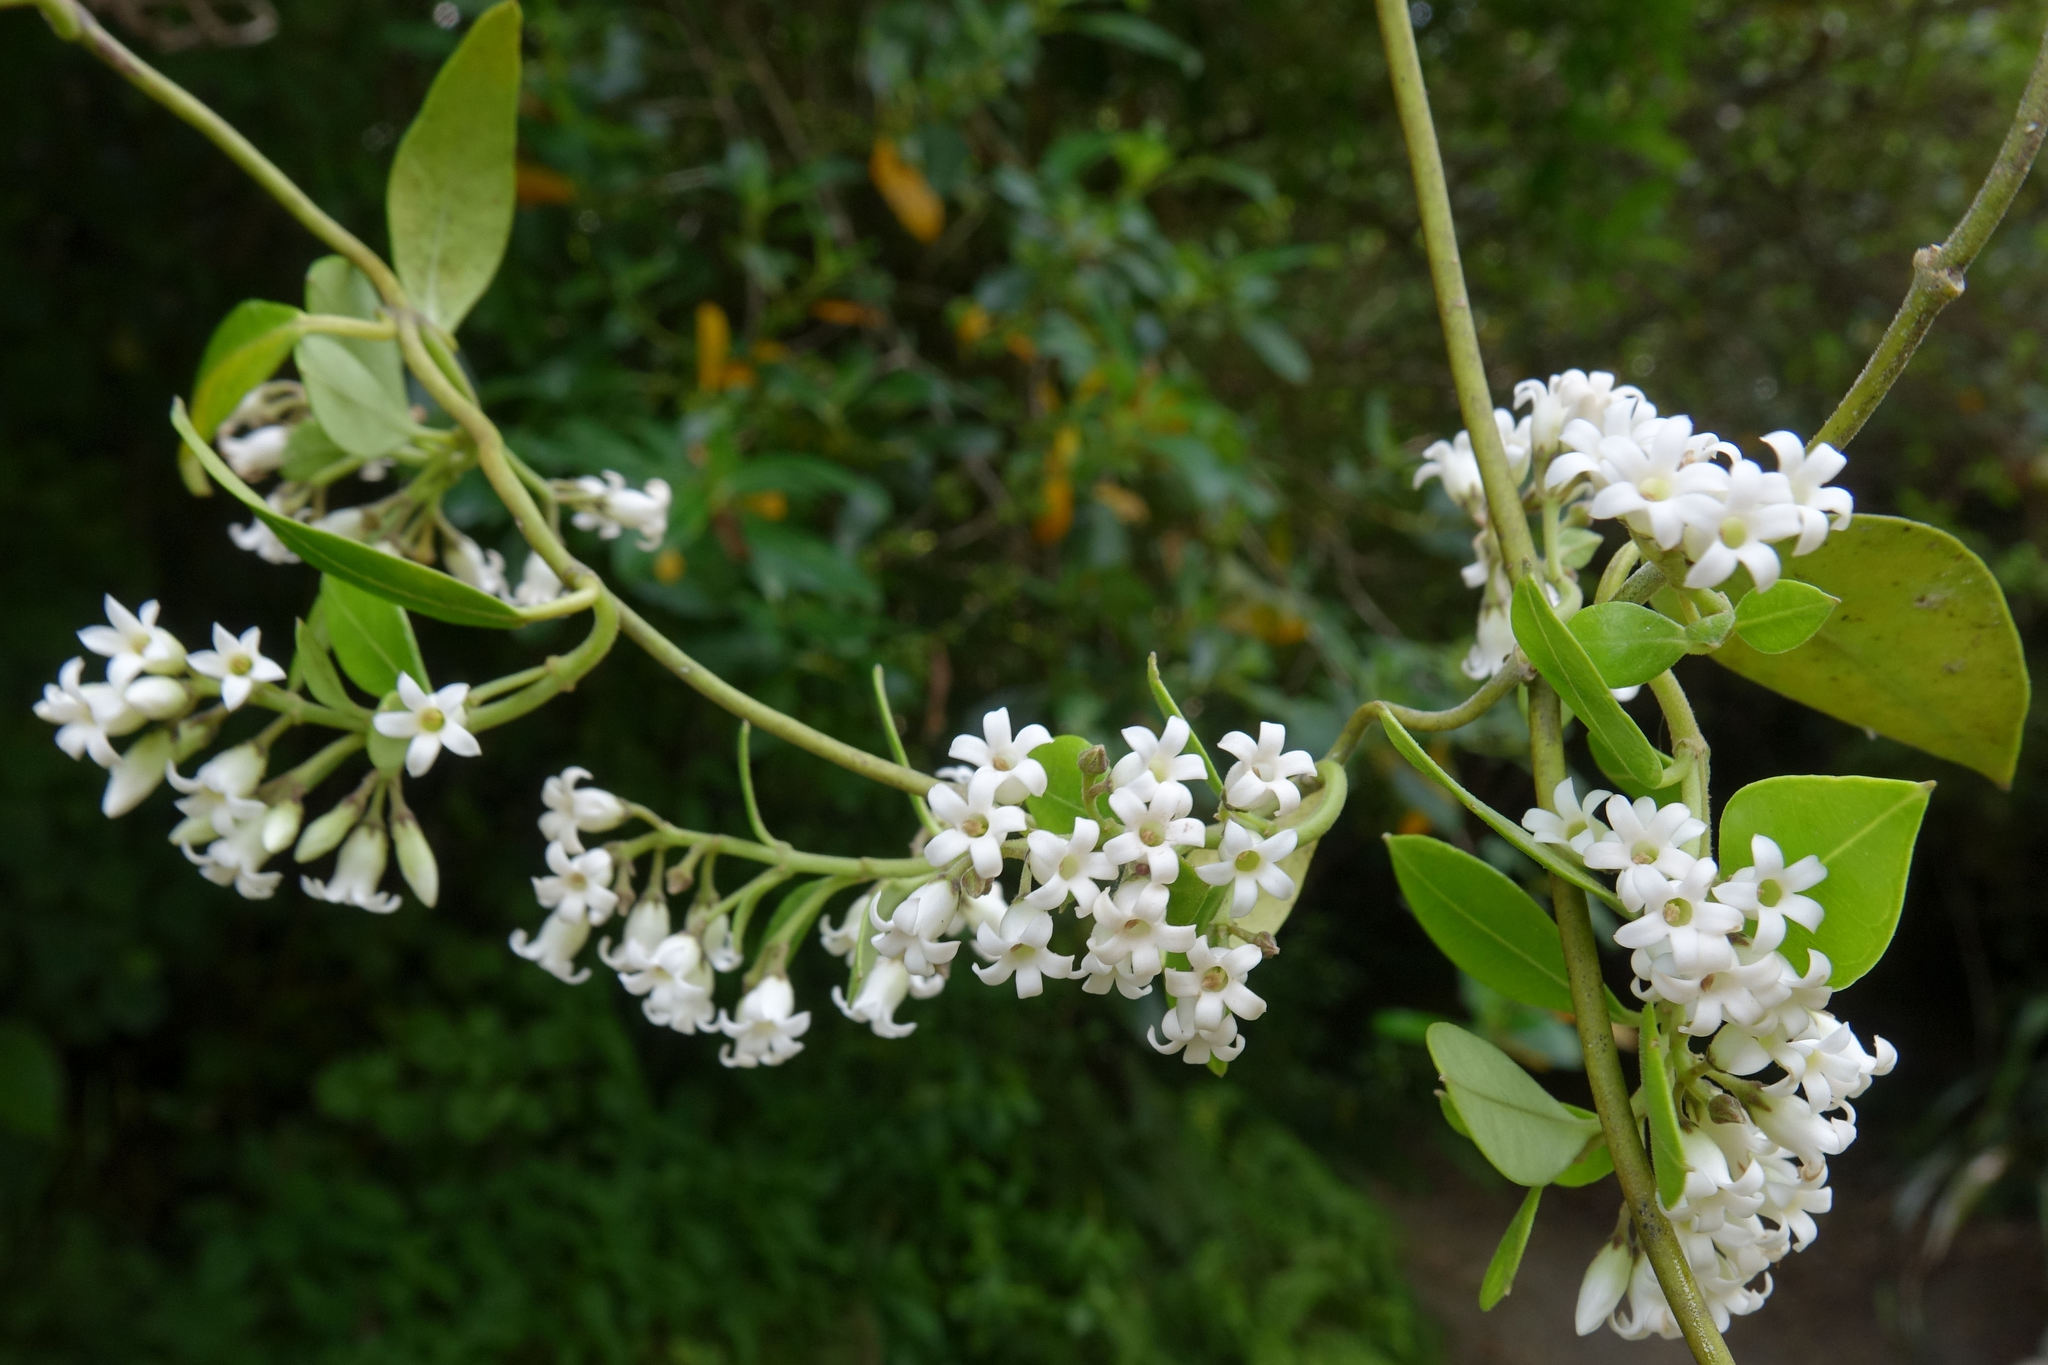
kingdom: Plantae
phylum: Tracheophyta
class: Magnoliopsida
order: Gentianales
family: Apocynaceae
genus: Parsonsia
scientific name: Parsonsia heterophylla
